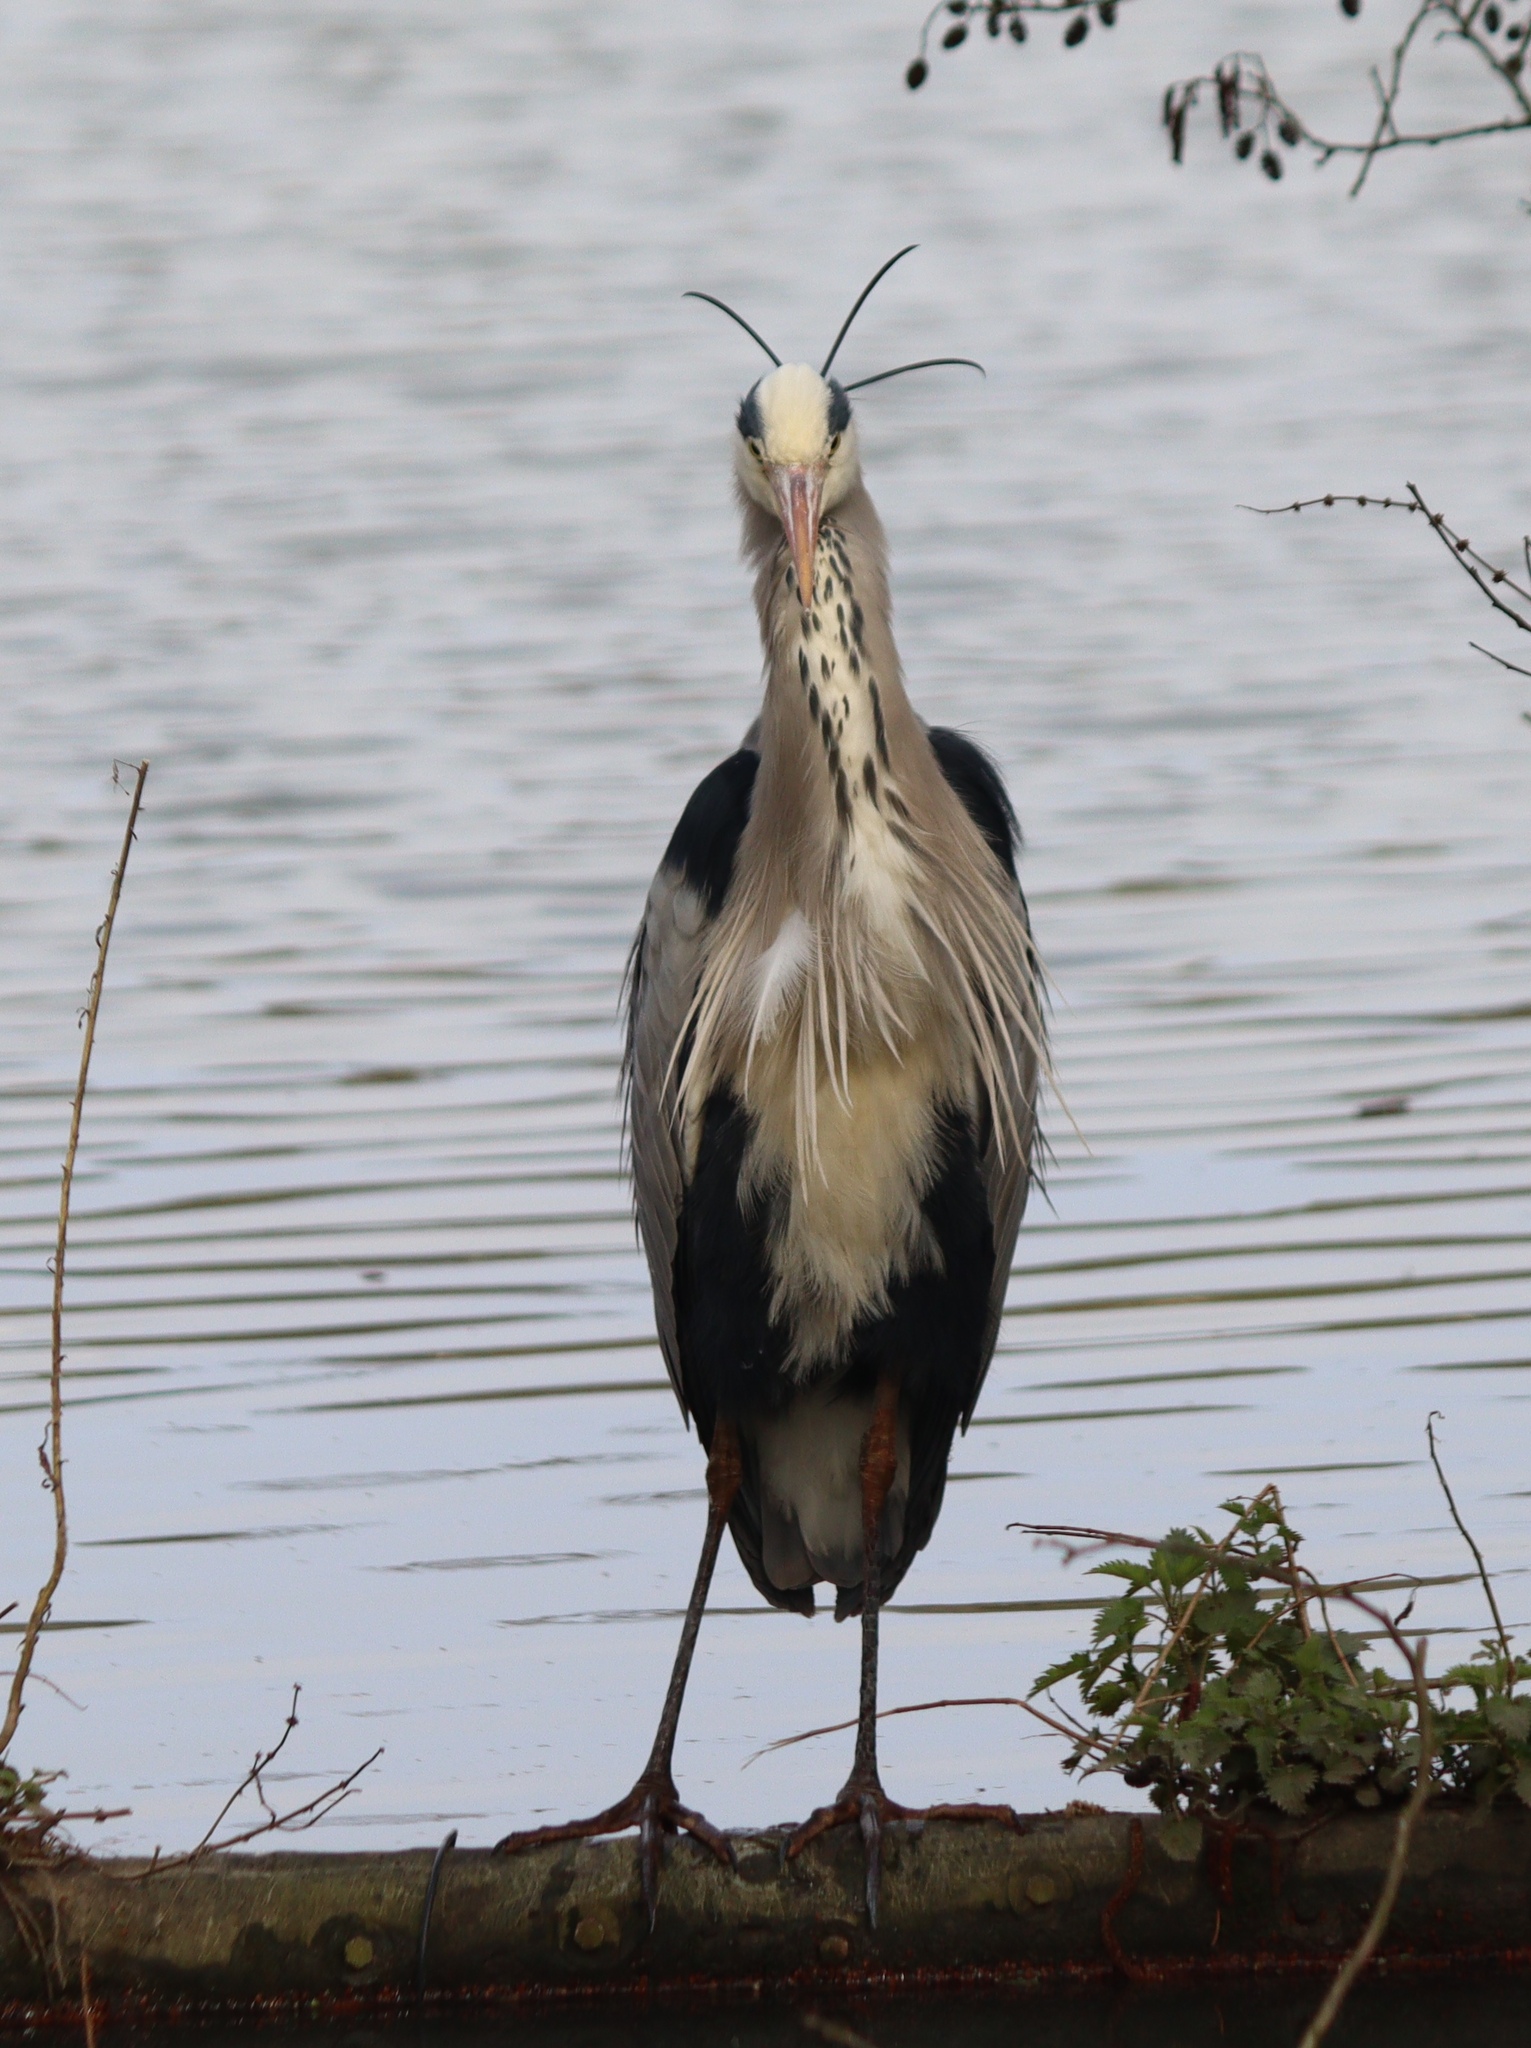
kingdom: Animalia
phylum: Chordata
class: Aves
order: Pelecaniformes
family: Ardeidae
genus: Ardea
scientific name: Ardea cinerea
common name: Grey heron
